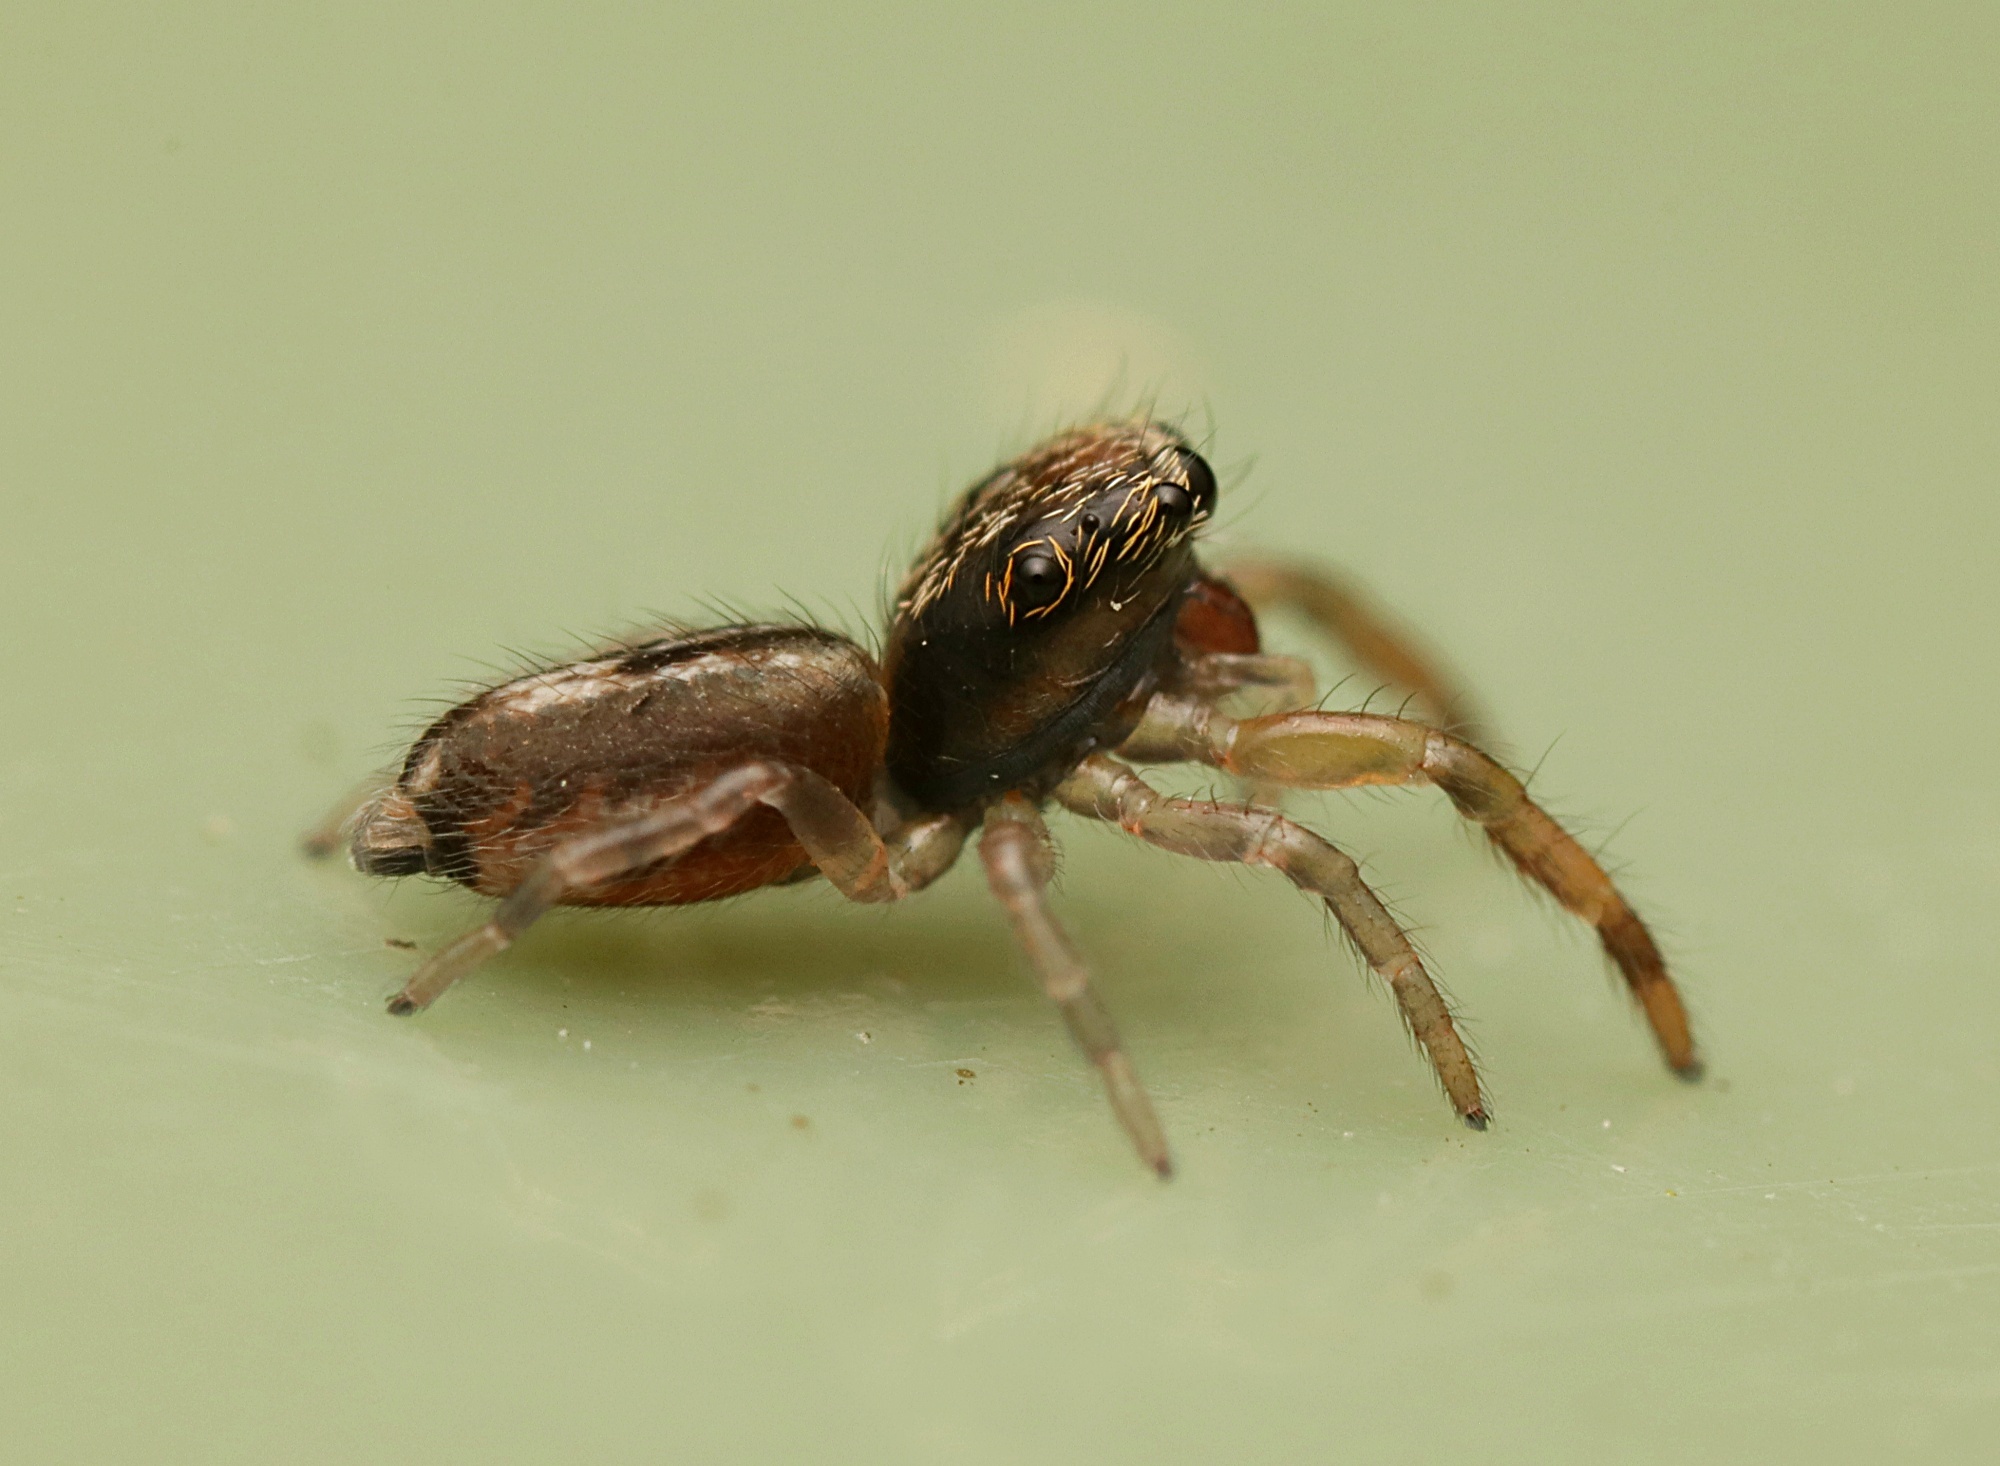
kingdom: Animalia
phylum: Arthropoda
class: Arachnida
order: Araneae
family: Salticidae
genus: Trite
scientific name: Trite planiceps
